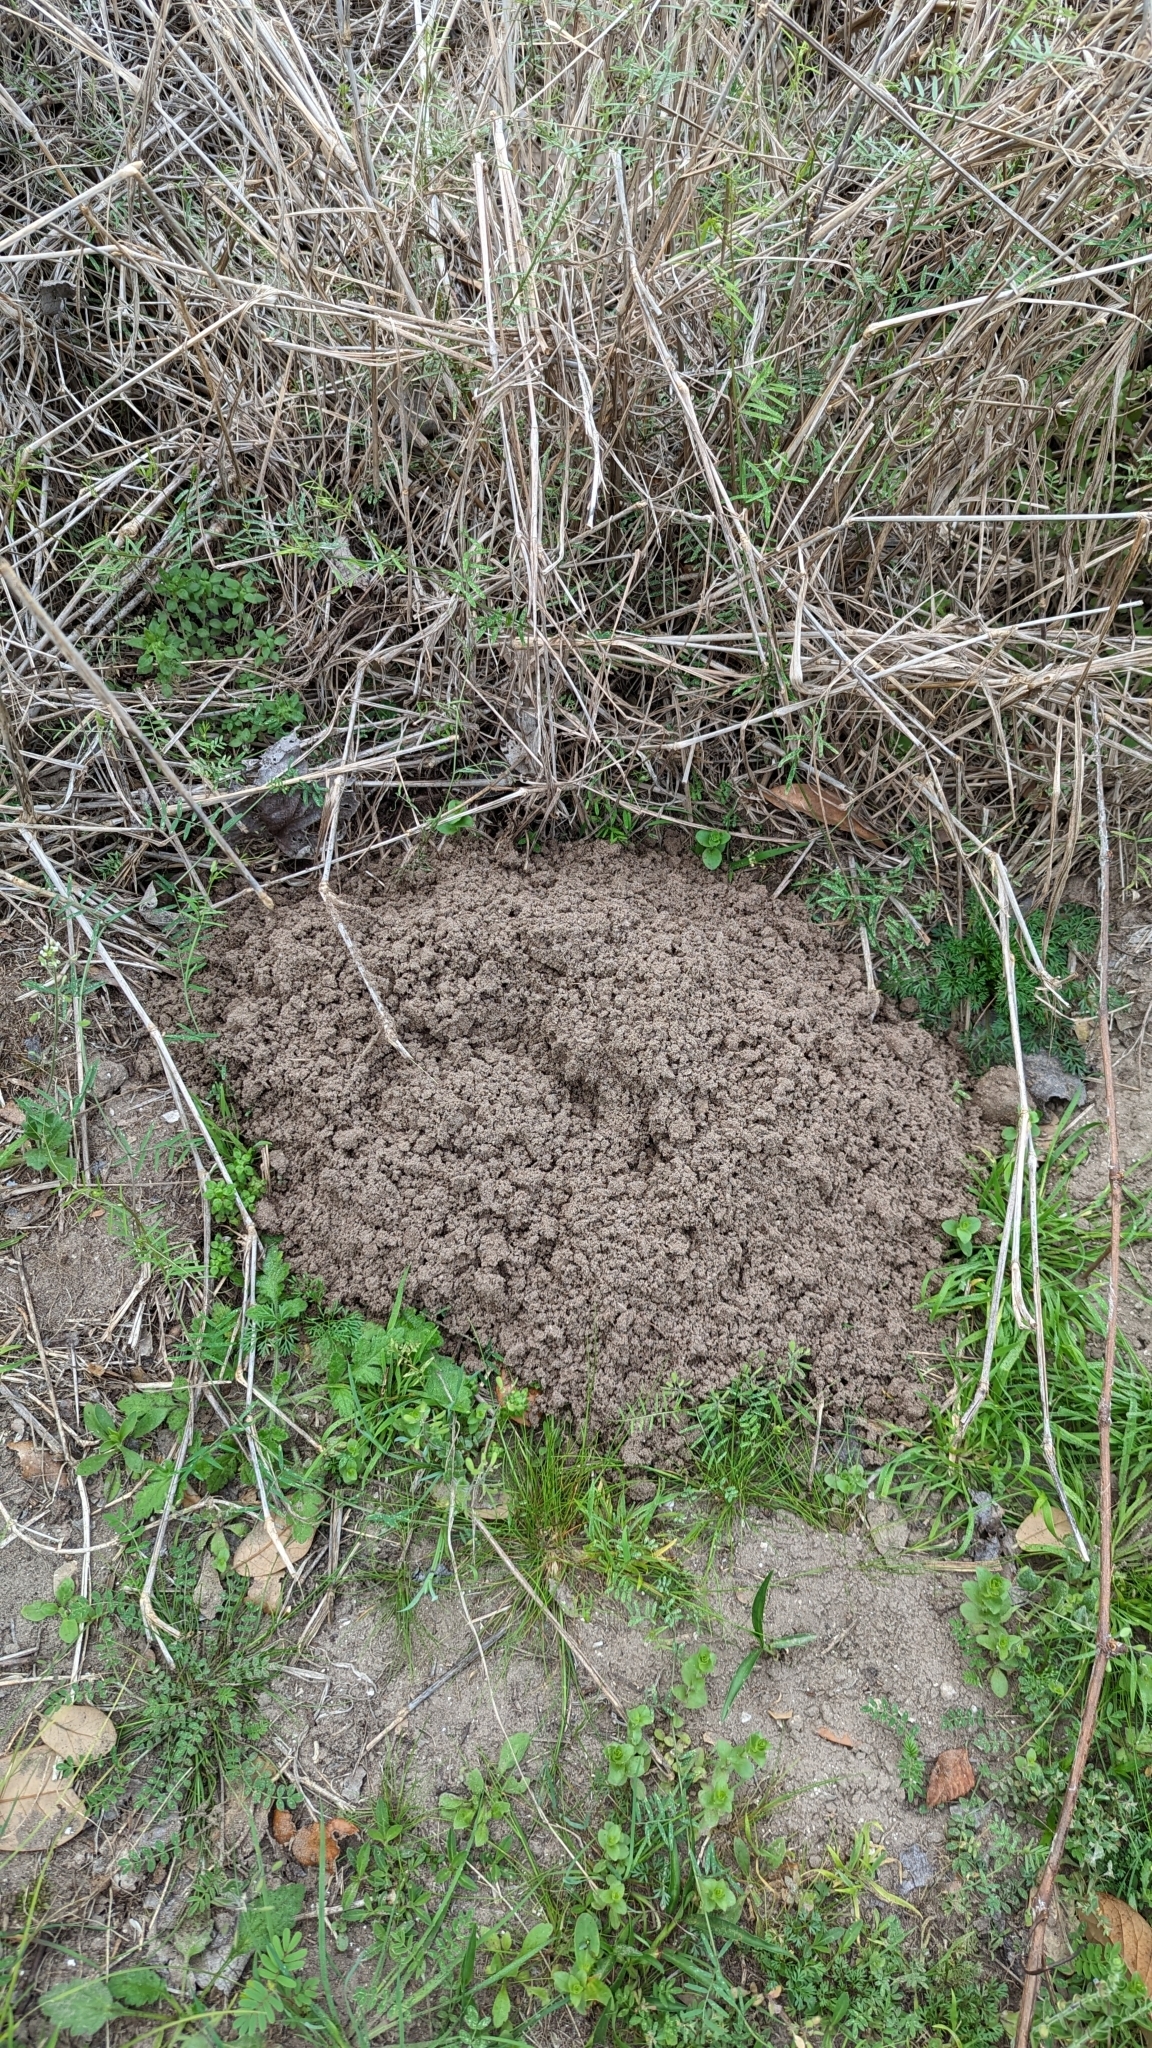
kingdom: Animalia
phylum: Chordata
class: Mammalia
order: Rodentia
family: Geomyidae
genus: Geomys
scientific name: Geomys attwateri
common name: Attwater's pocket gopher
